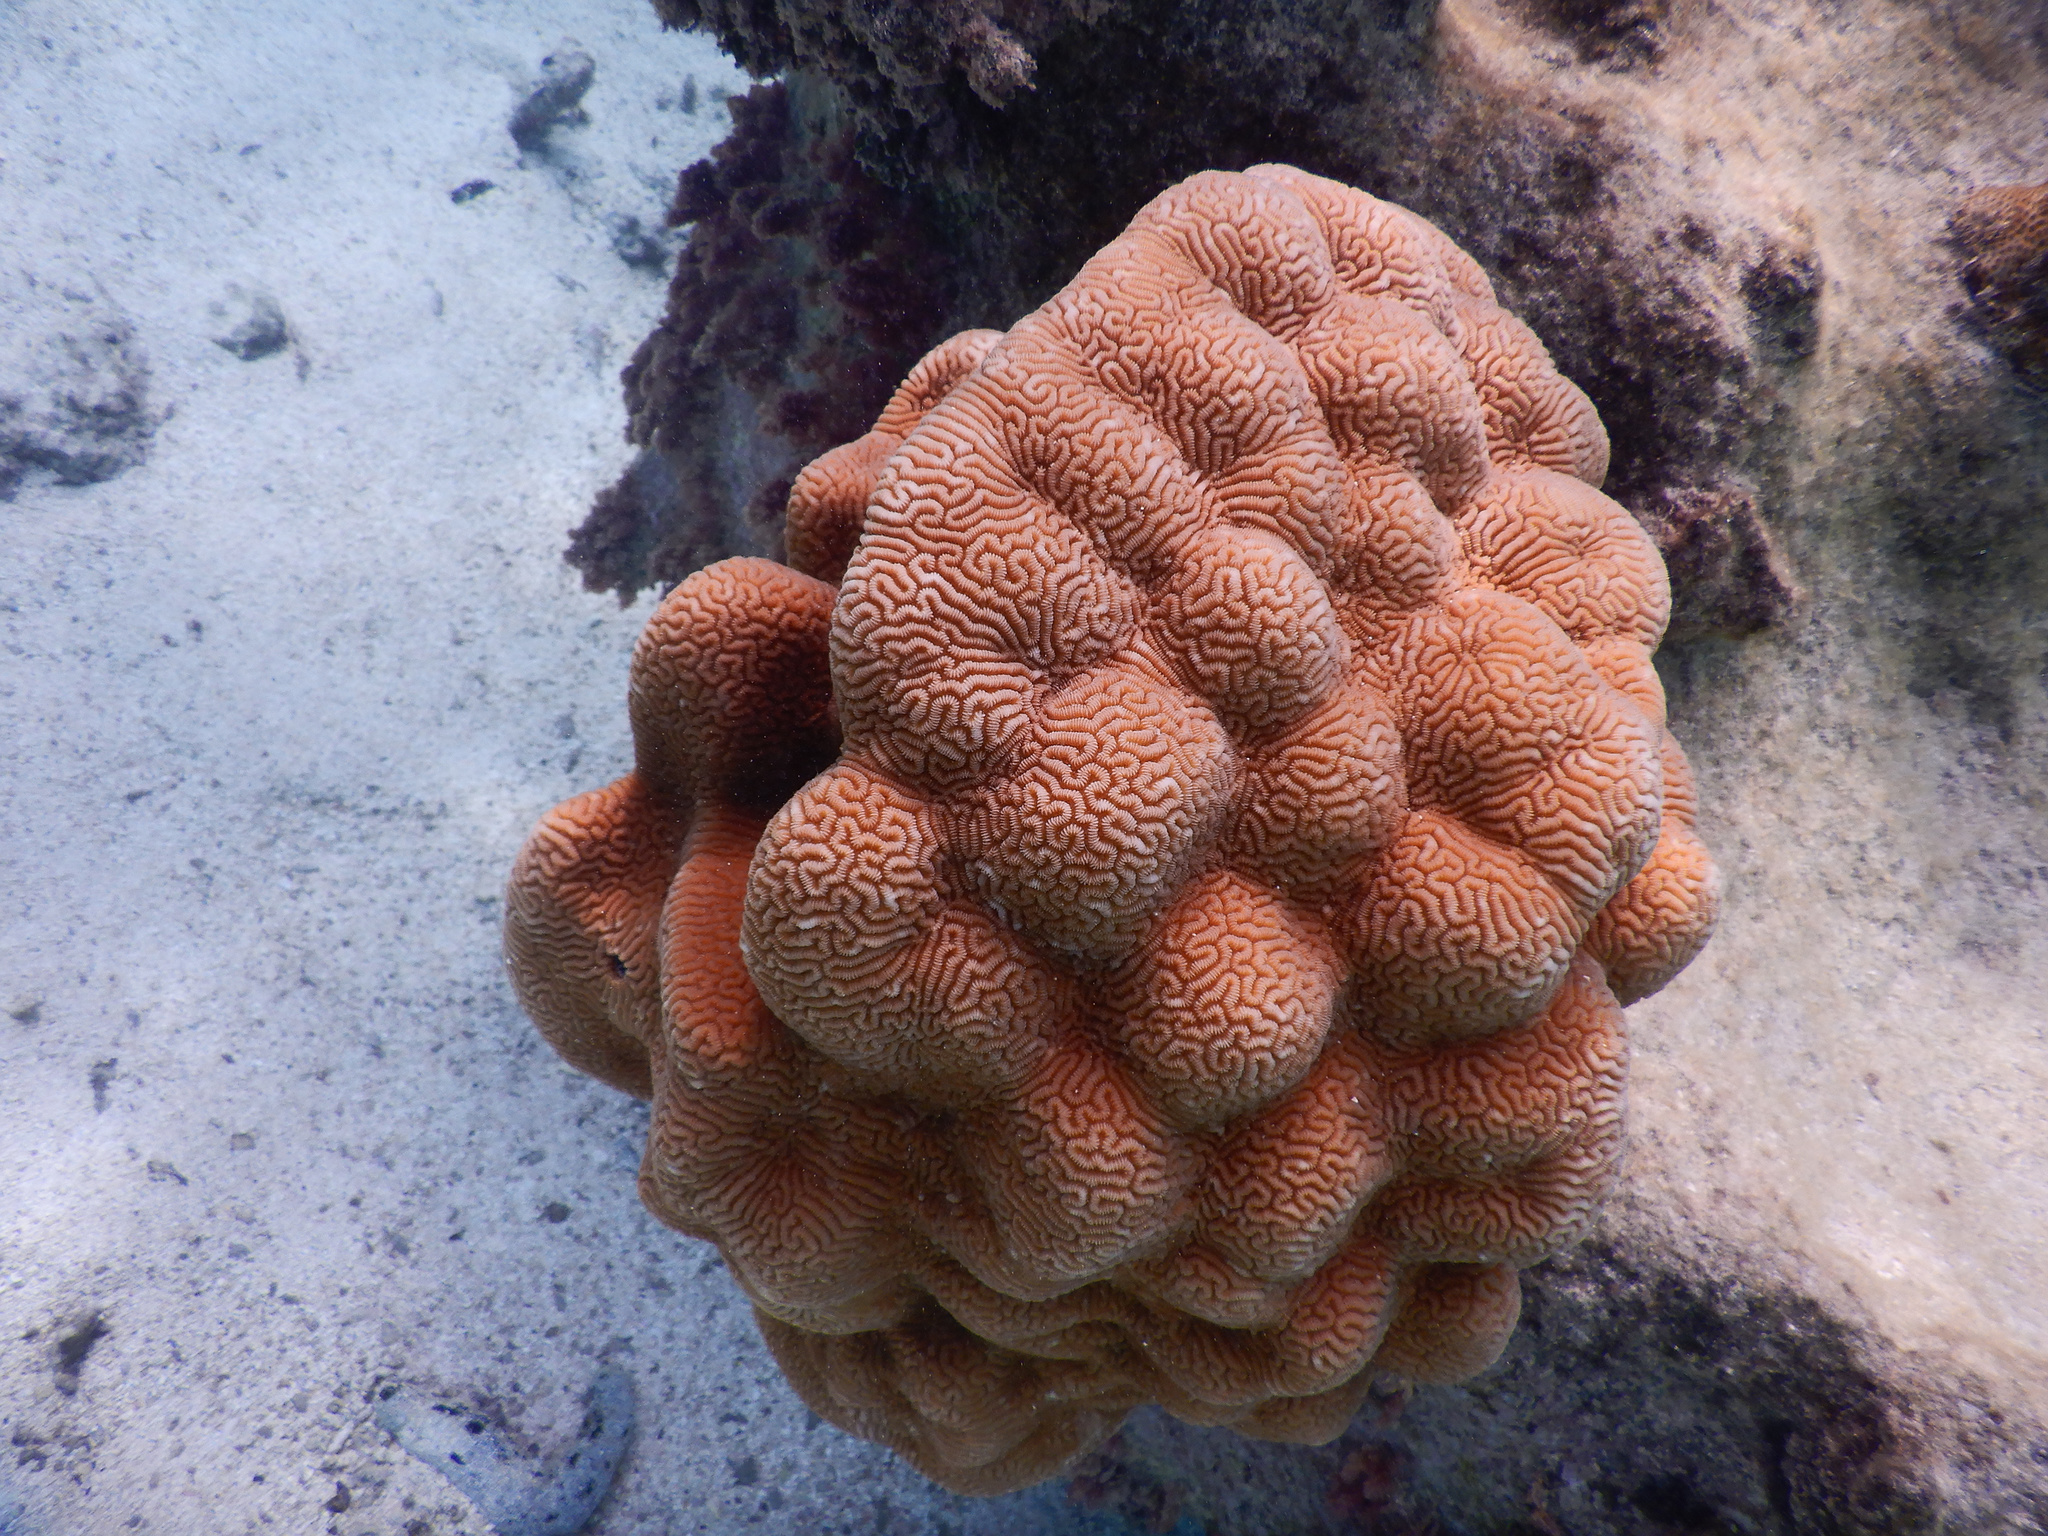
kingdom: Animalia
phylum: Cnidaria
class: Anthozoa
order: Scleractinia
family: Merulinidae
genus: Leptoria
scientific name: Leptoria phrygia
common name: Least valley coral
